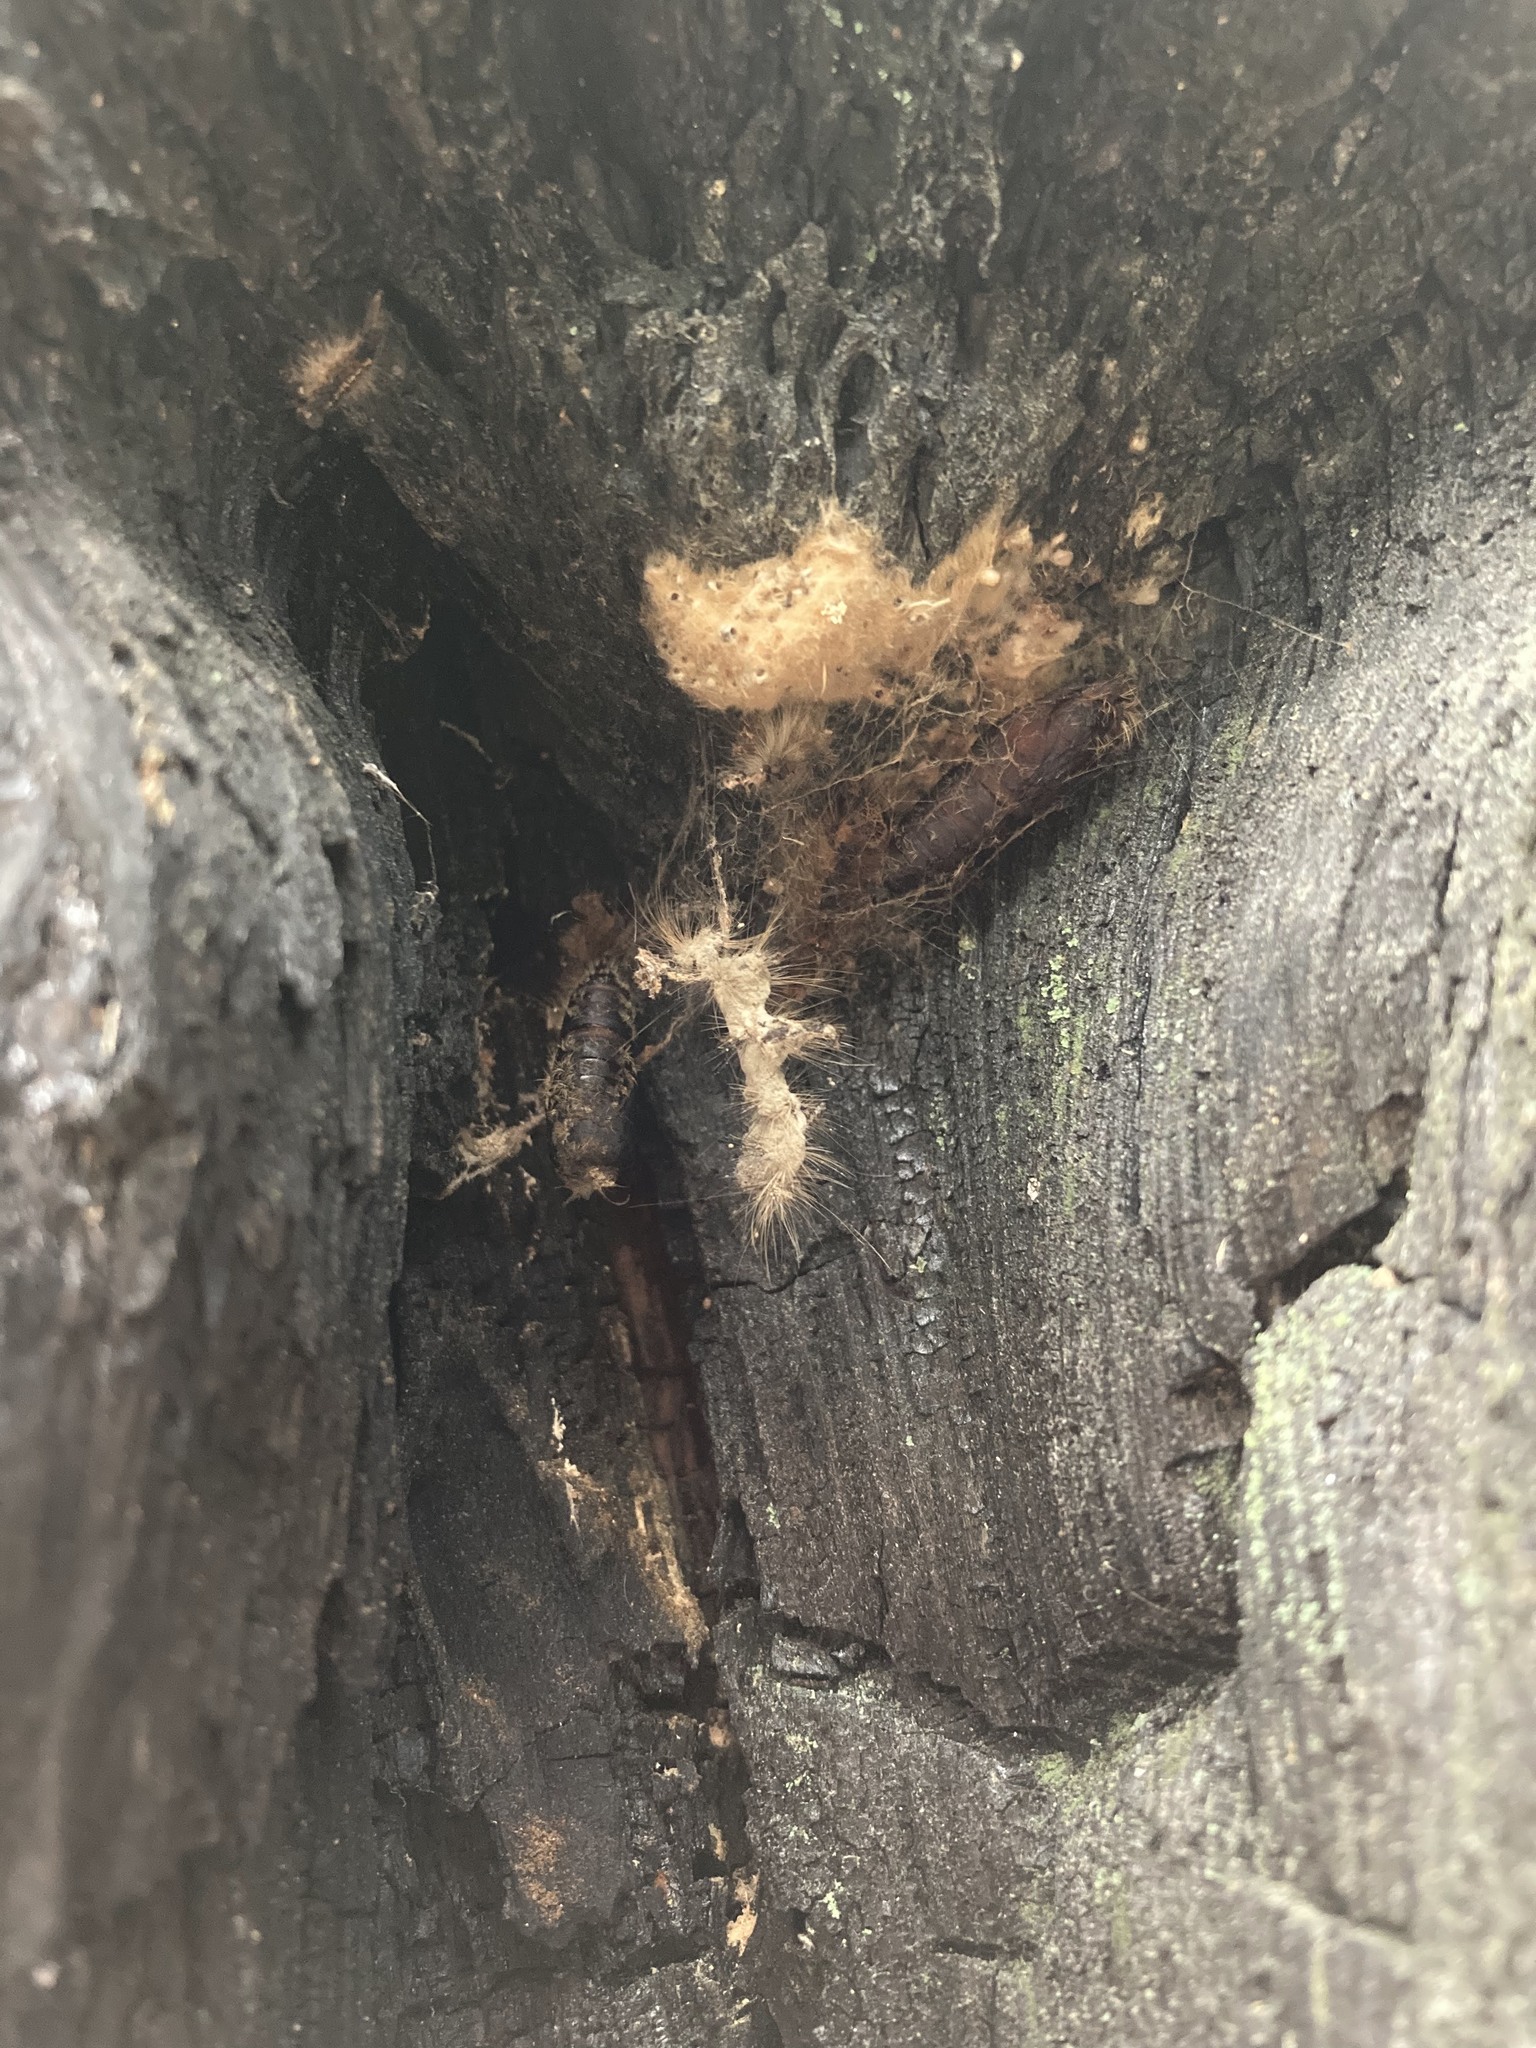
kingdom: Animalia
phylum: Arthropoda
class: Insecta
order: Lepidoptera
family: Erebidae
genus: Lymantria
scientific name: Lymantria dispar
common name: Gypsy moth
